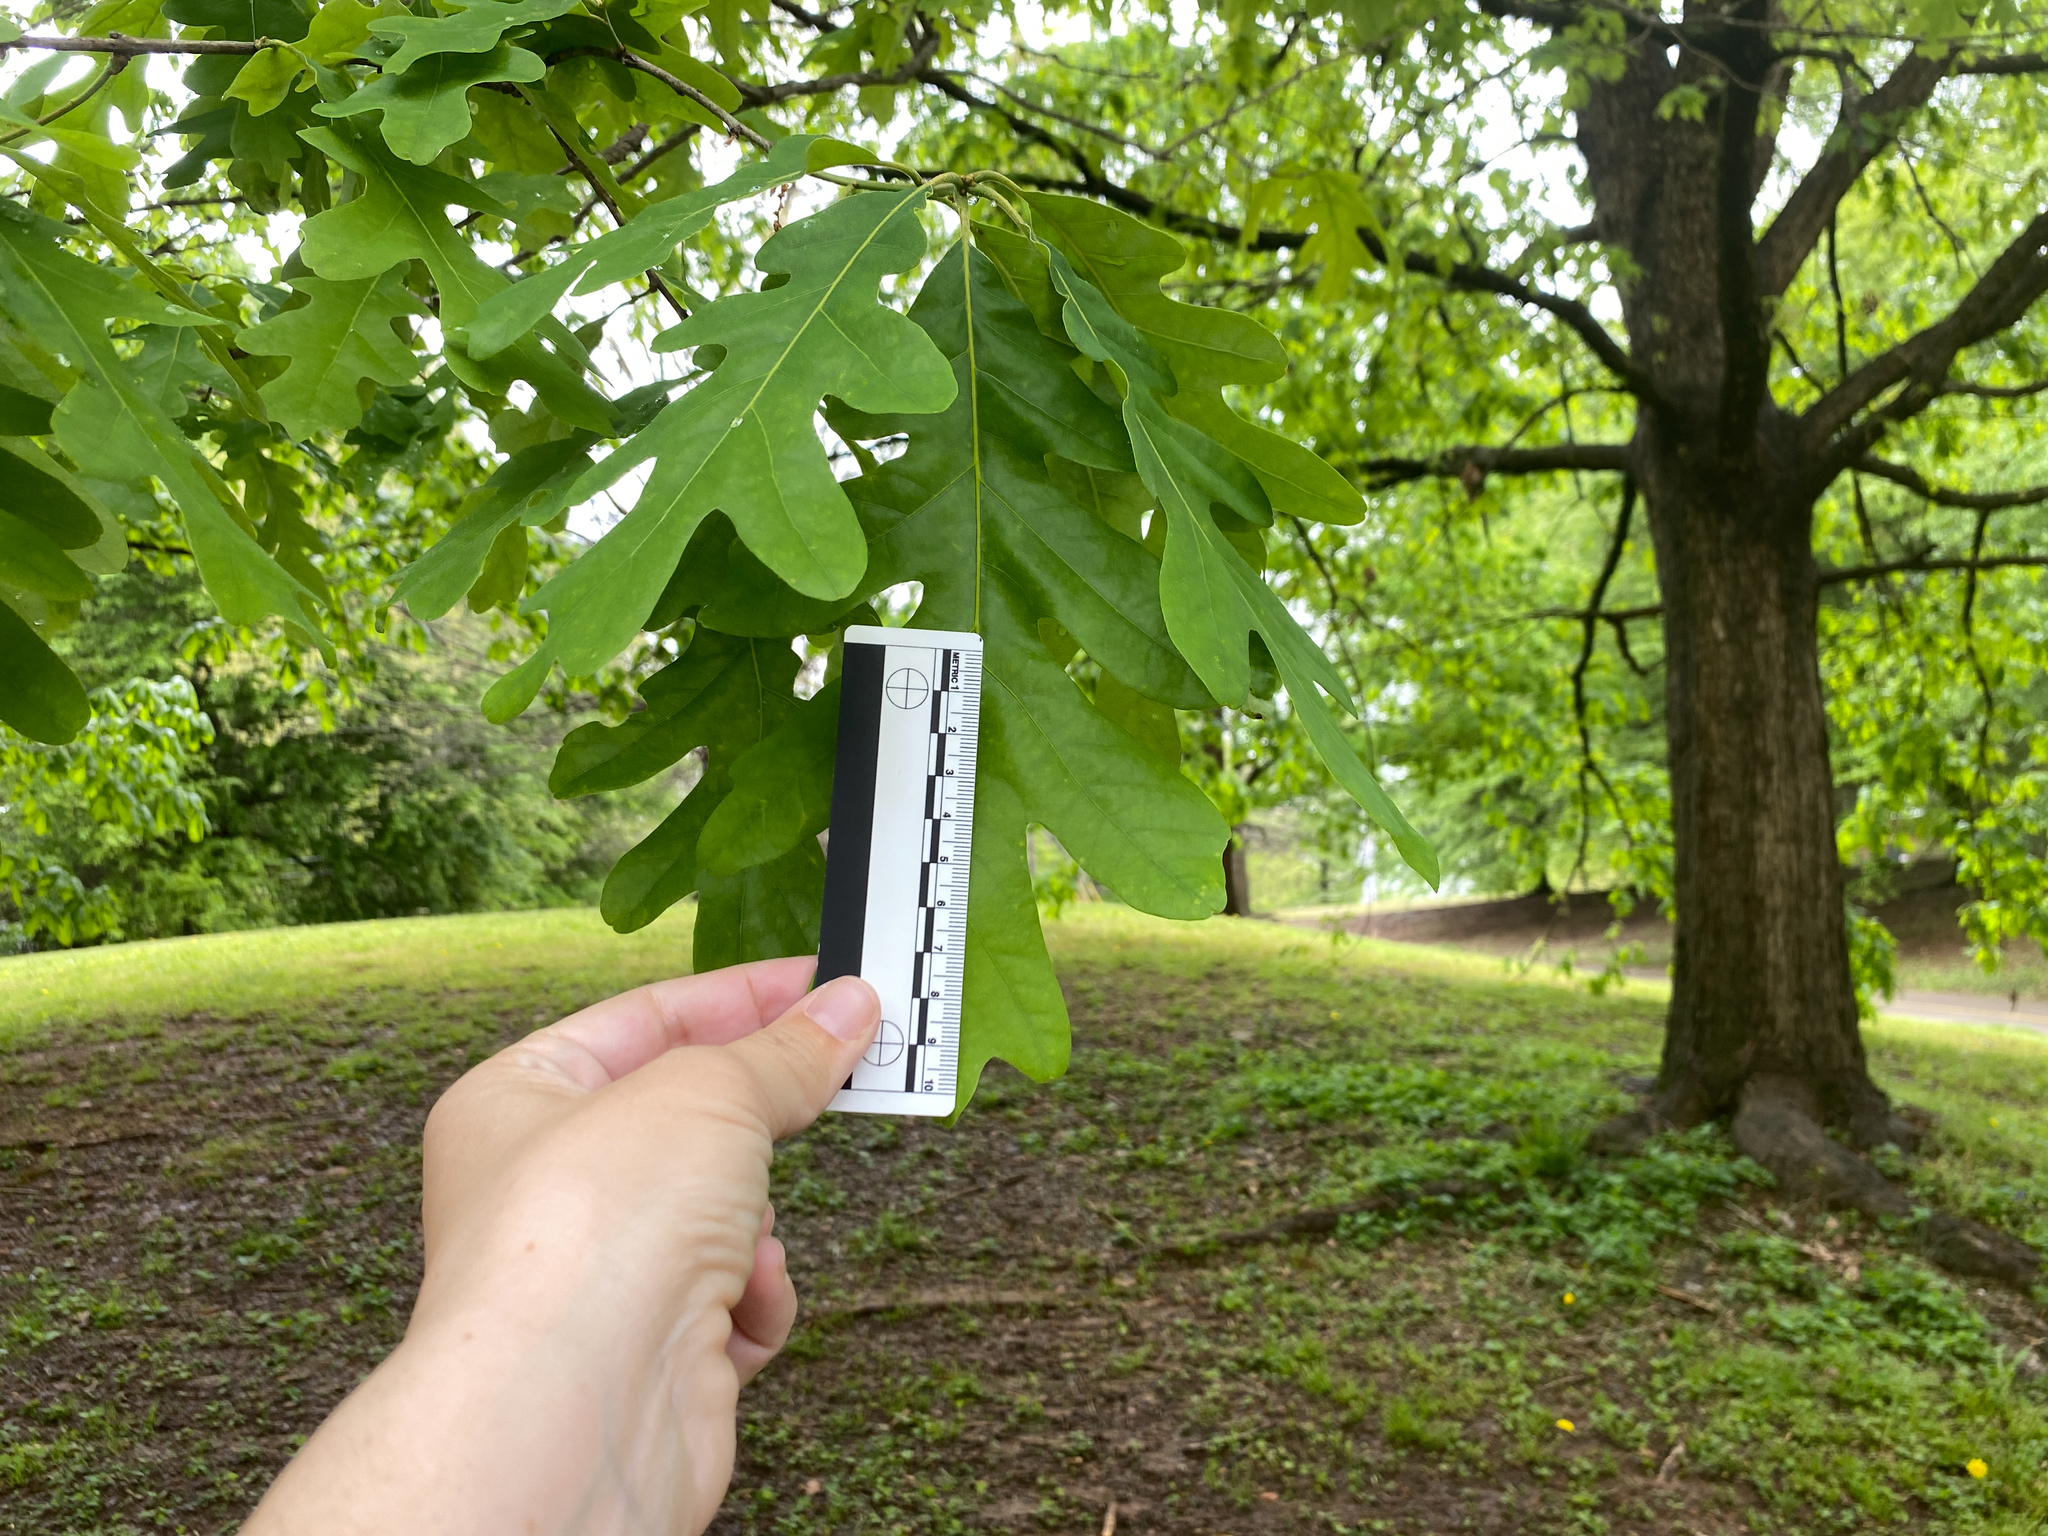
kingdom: Plantae
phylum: Tracheophyta
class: Magnoliopsida
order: Fagales
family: Fagaceae
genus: Quercus
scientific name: Quercus alba
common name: White oak
